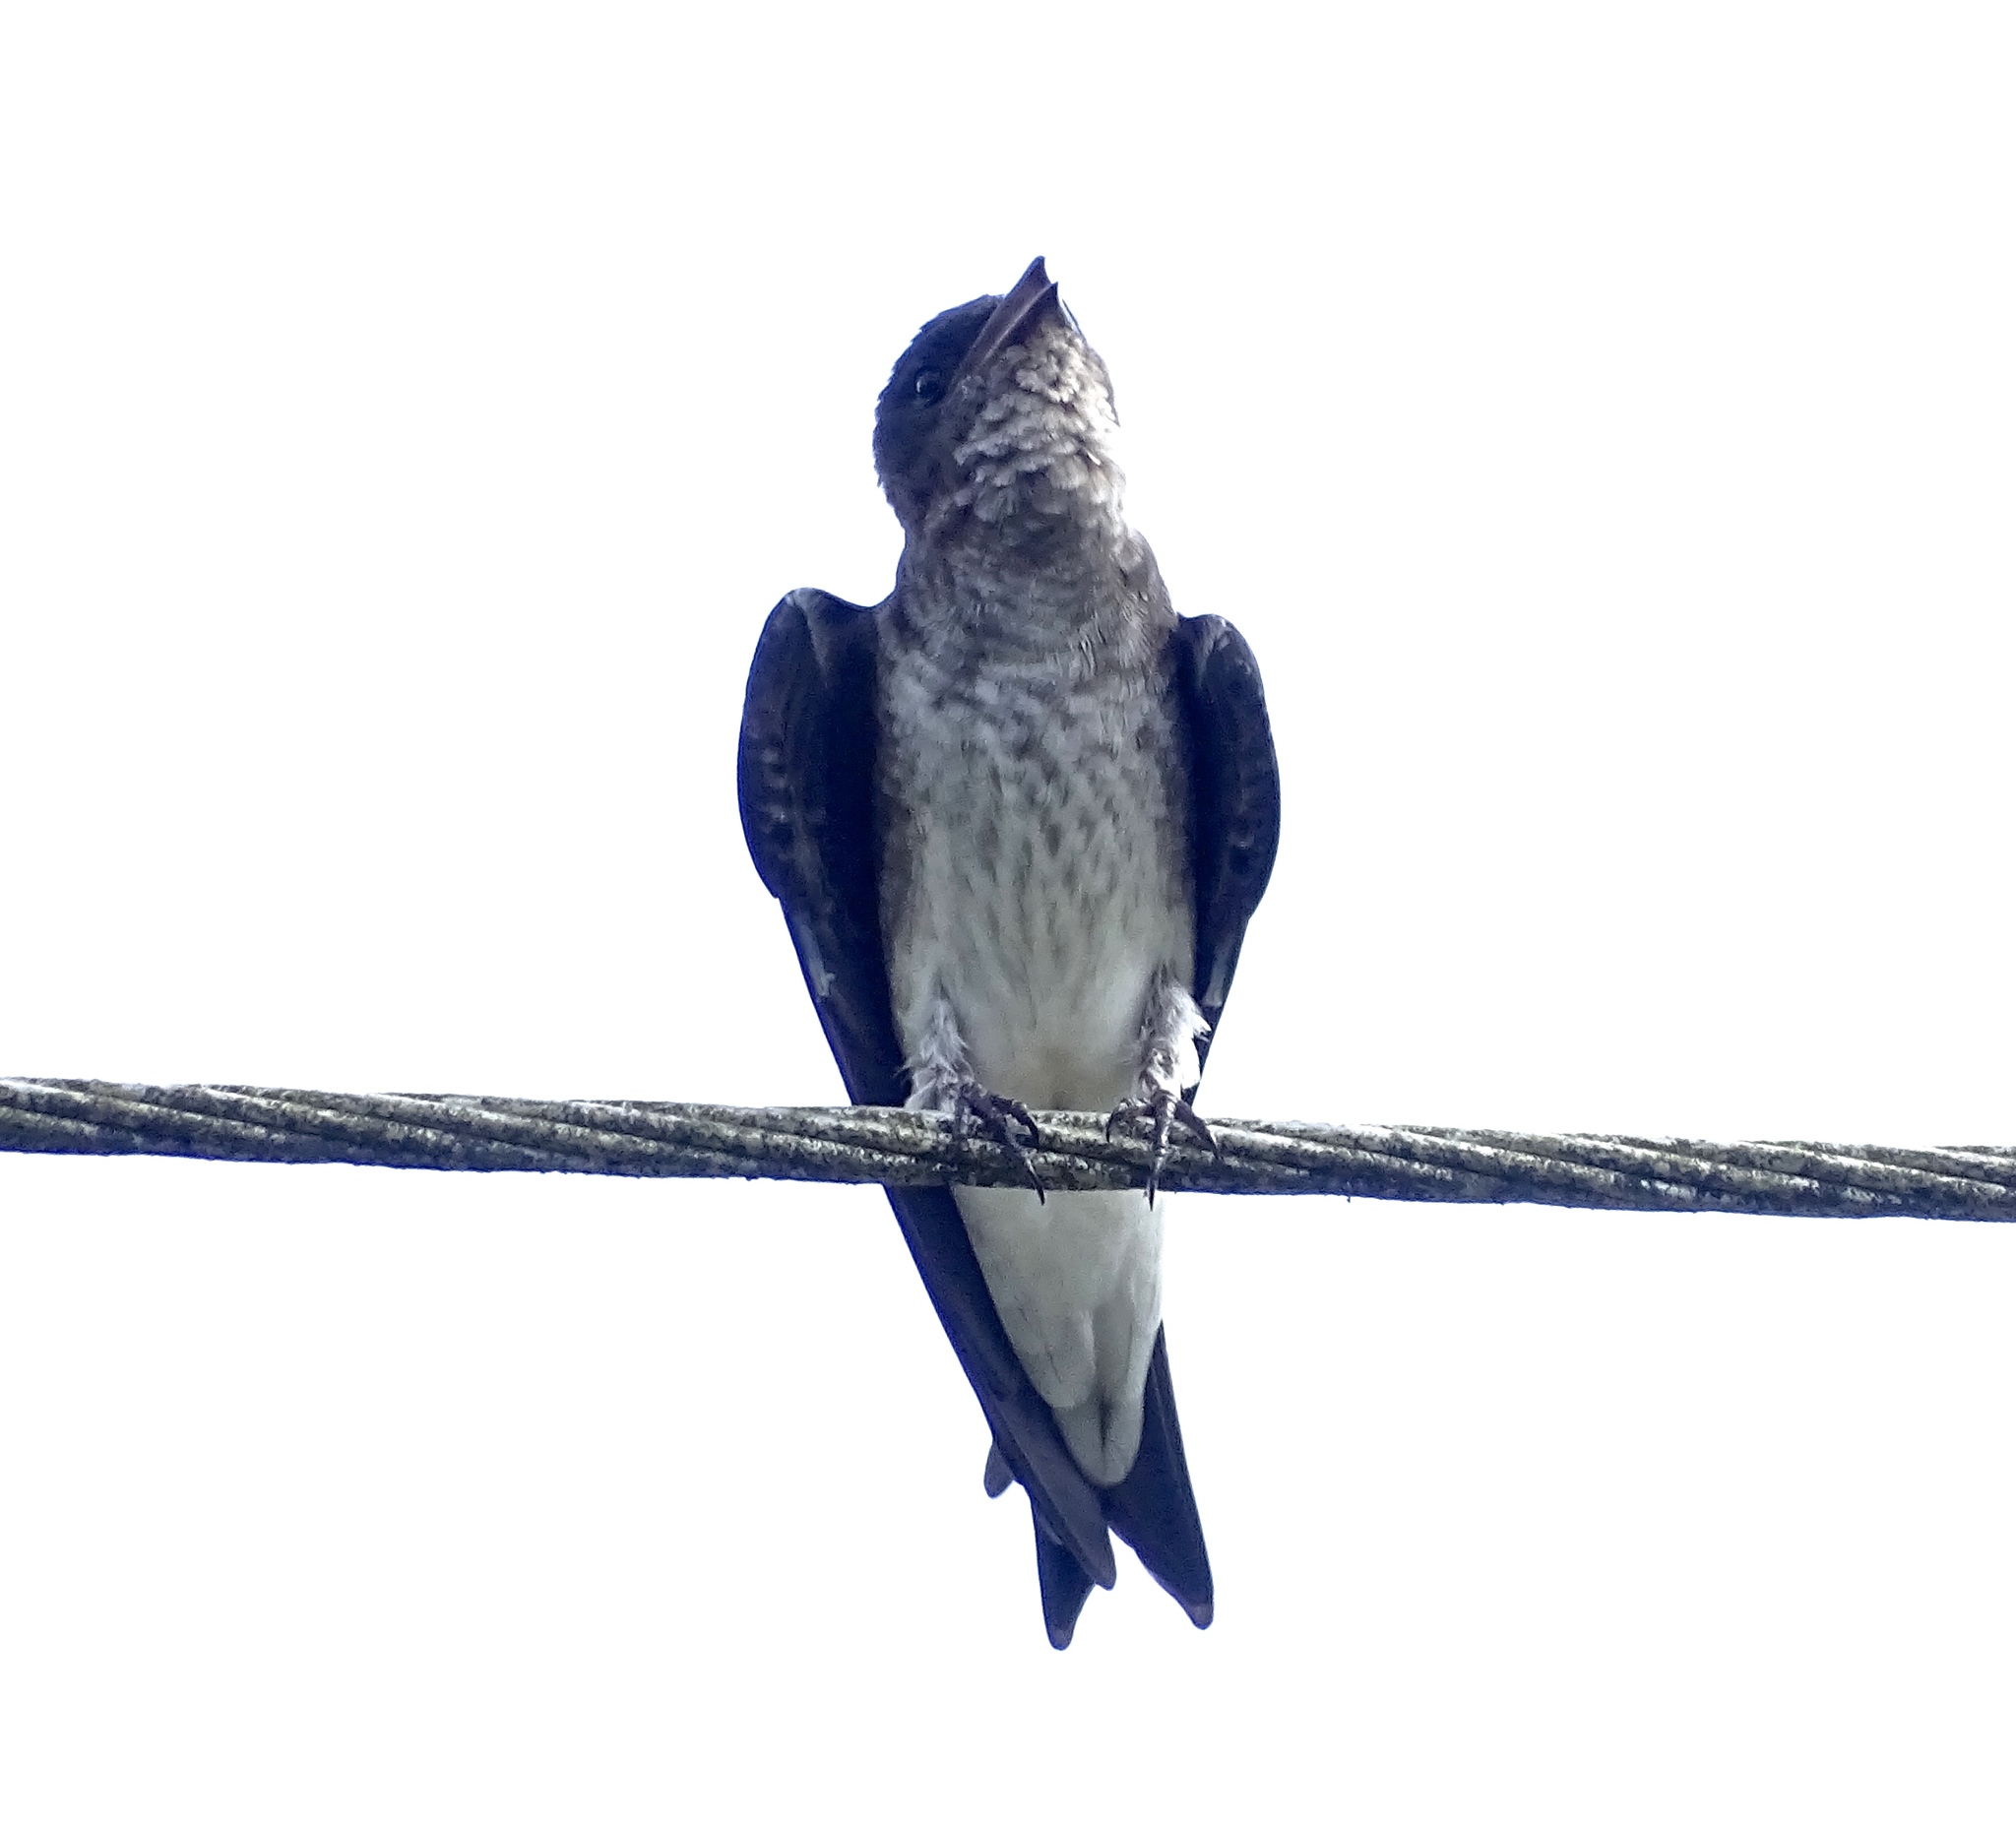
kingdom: Animalia
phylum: Chordata
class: Aves
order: Passeriformes
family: Hirundinidae
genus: Progne
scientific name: Progne chalybea
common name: Grey-breasted martin
